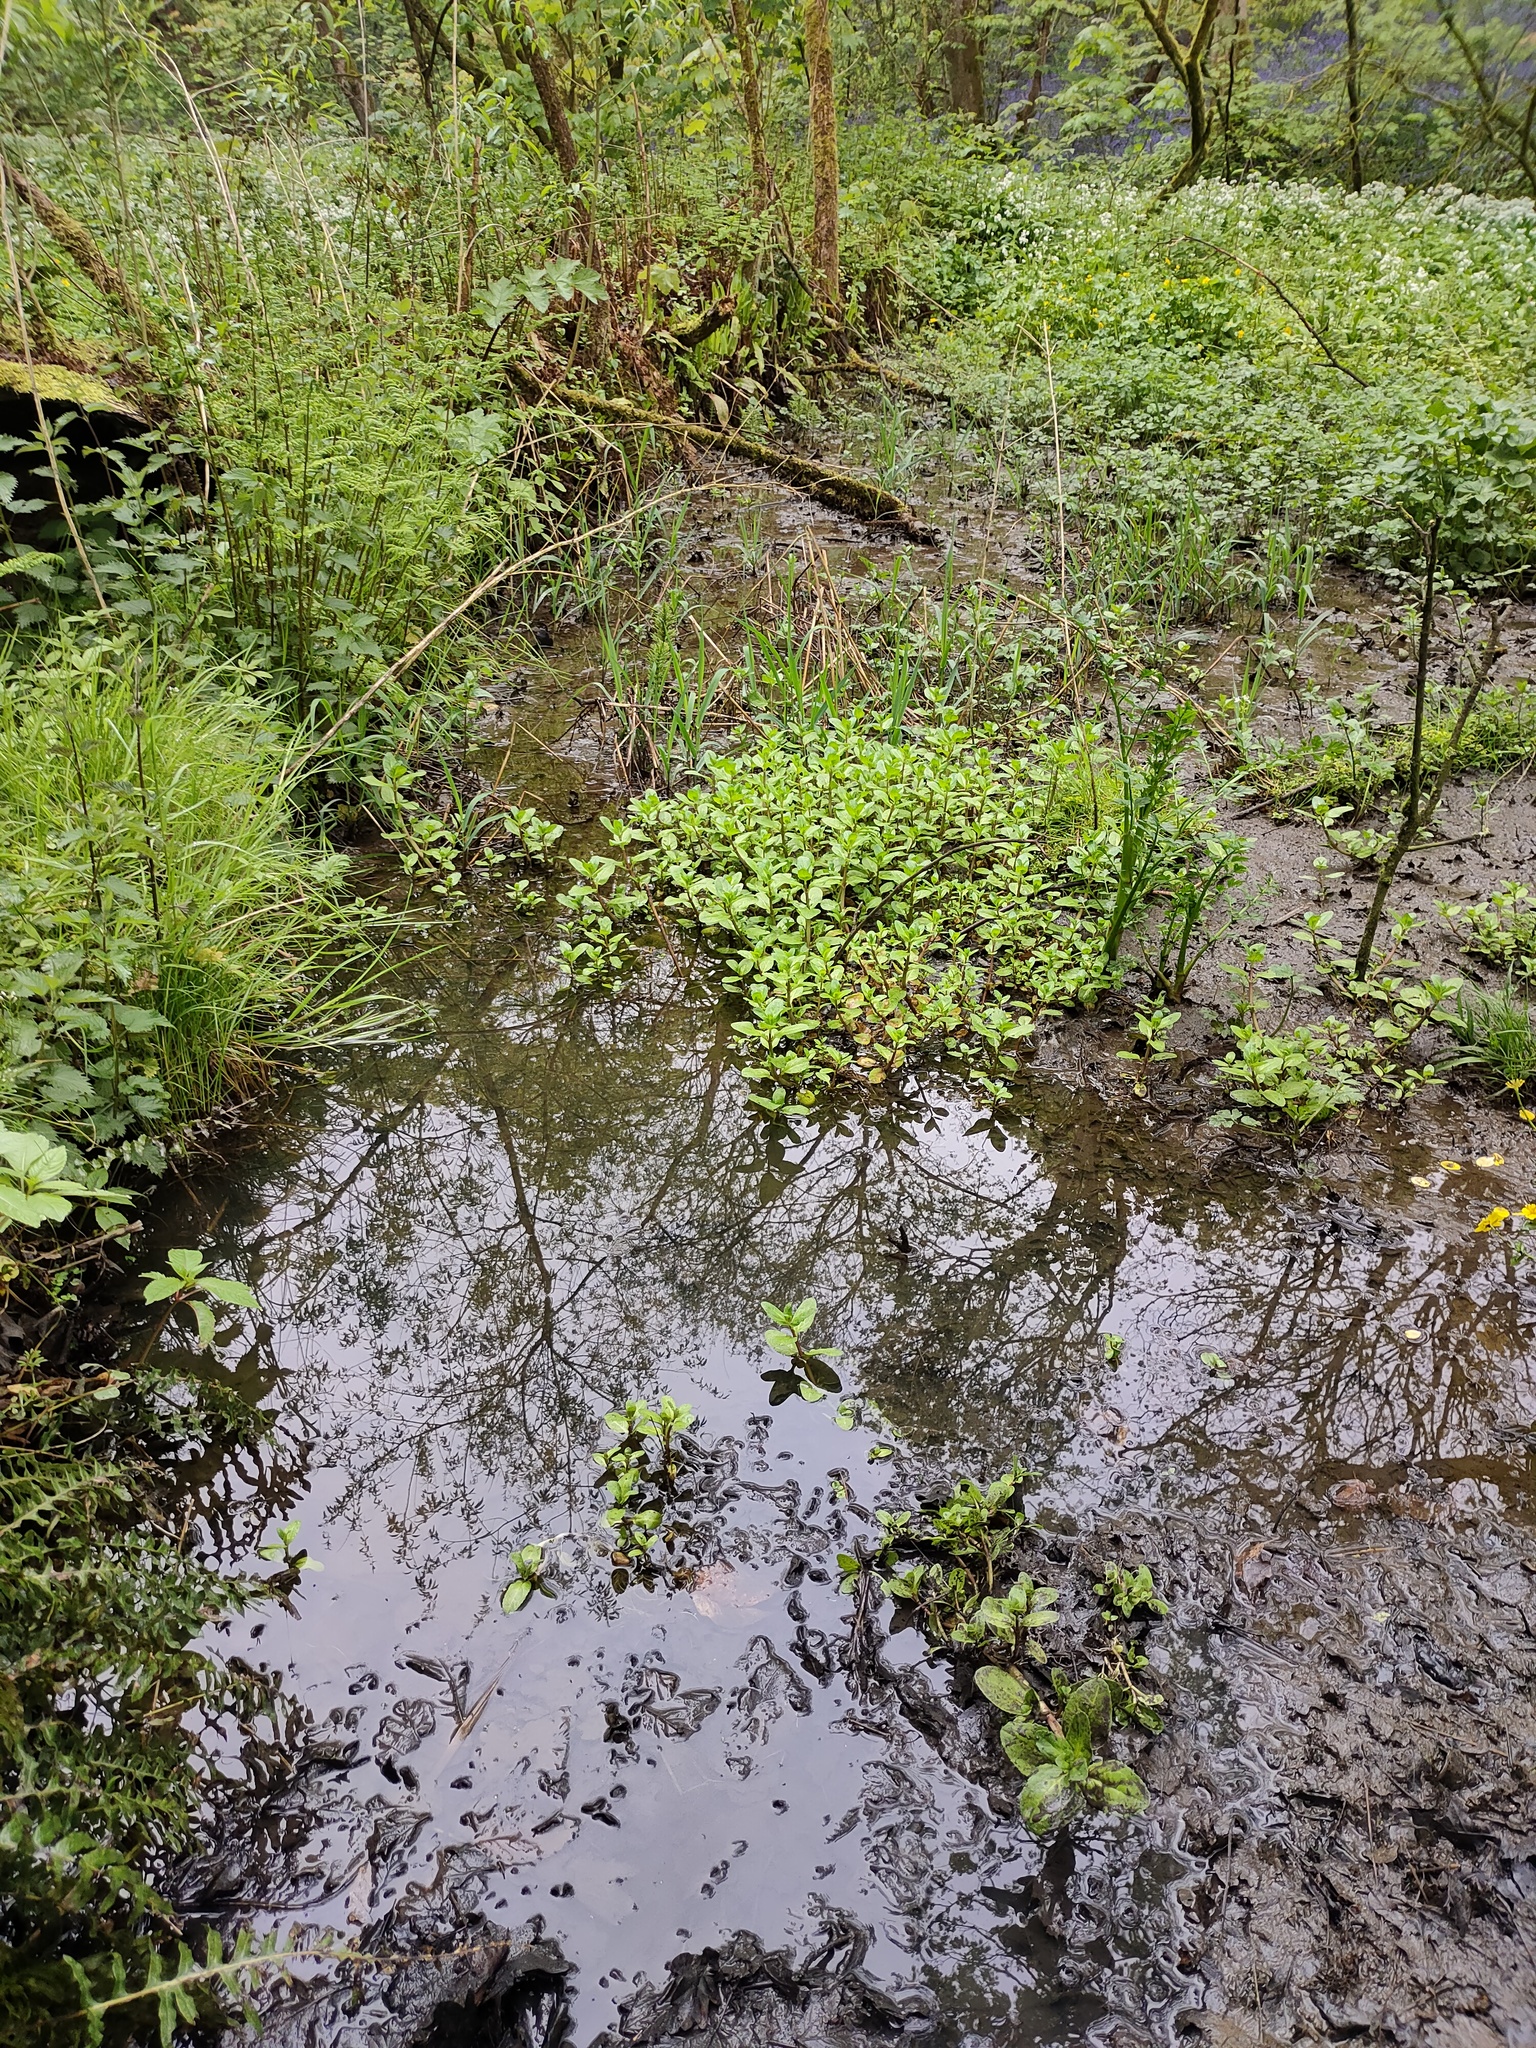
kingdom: Plantae
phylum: Tracheophyta
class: Magnoliopsida
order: Lamiales
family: Plantaginaceae
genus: Veronica
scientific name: Veronica beccabunga
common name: Brooklime
